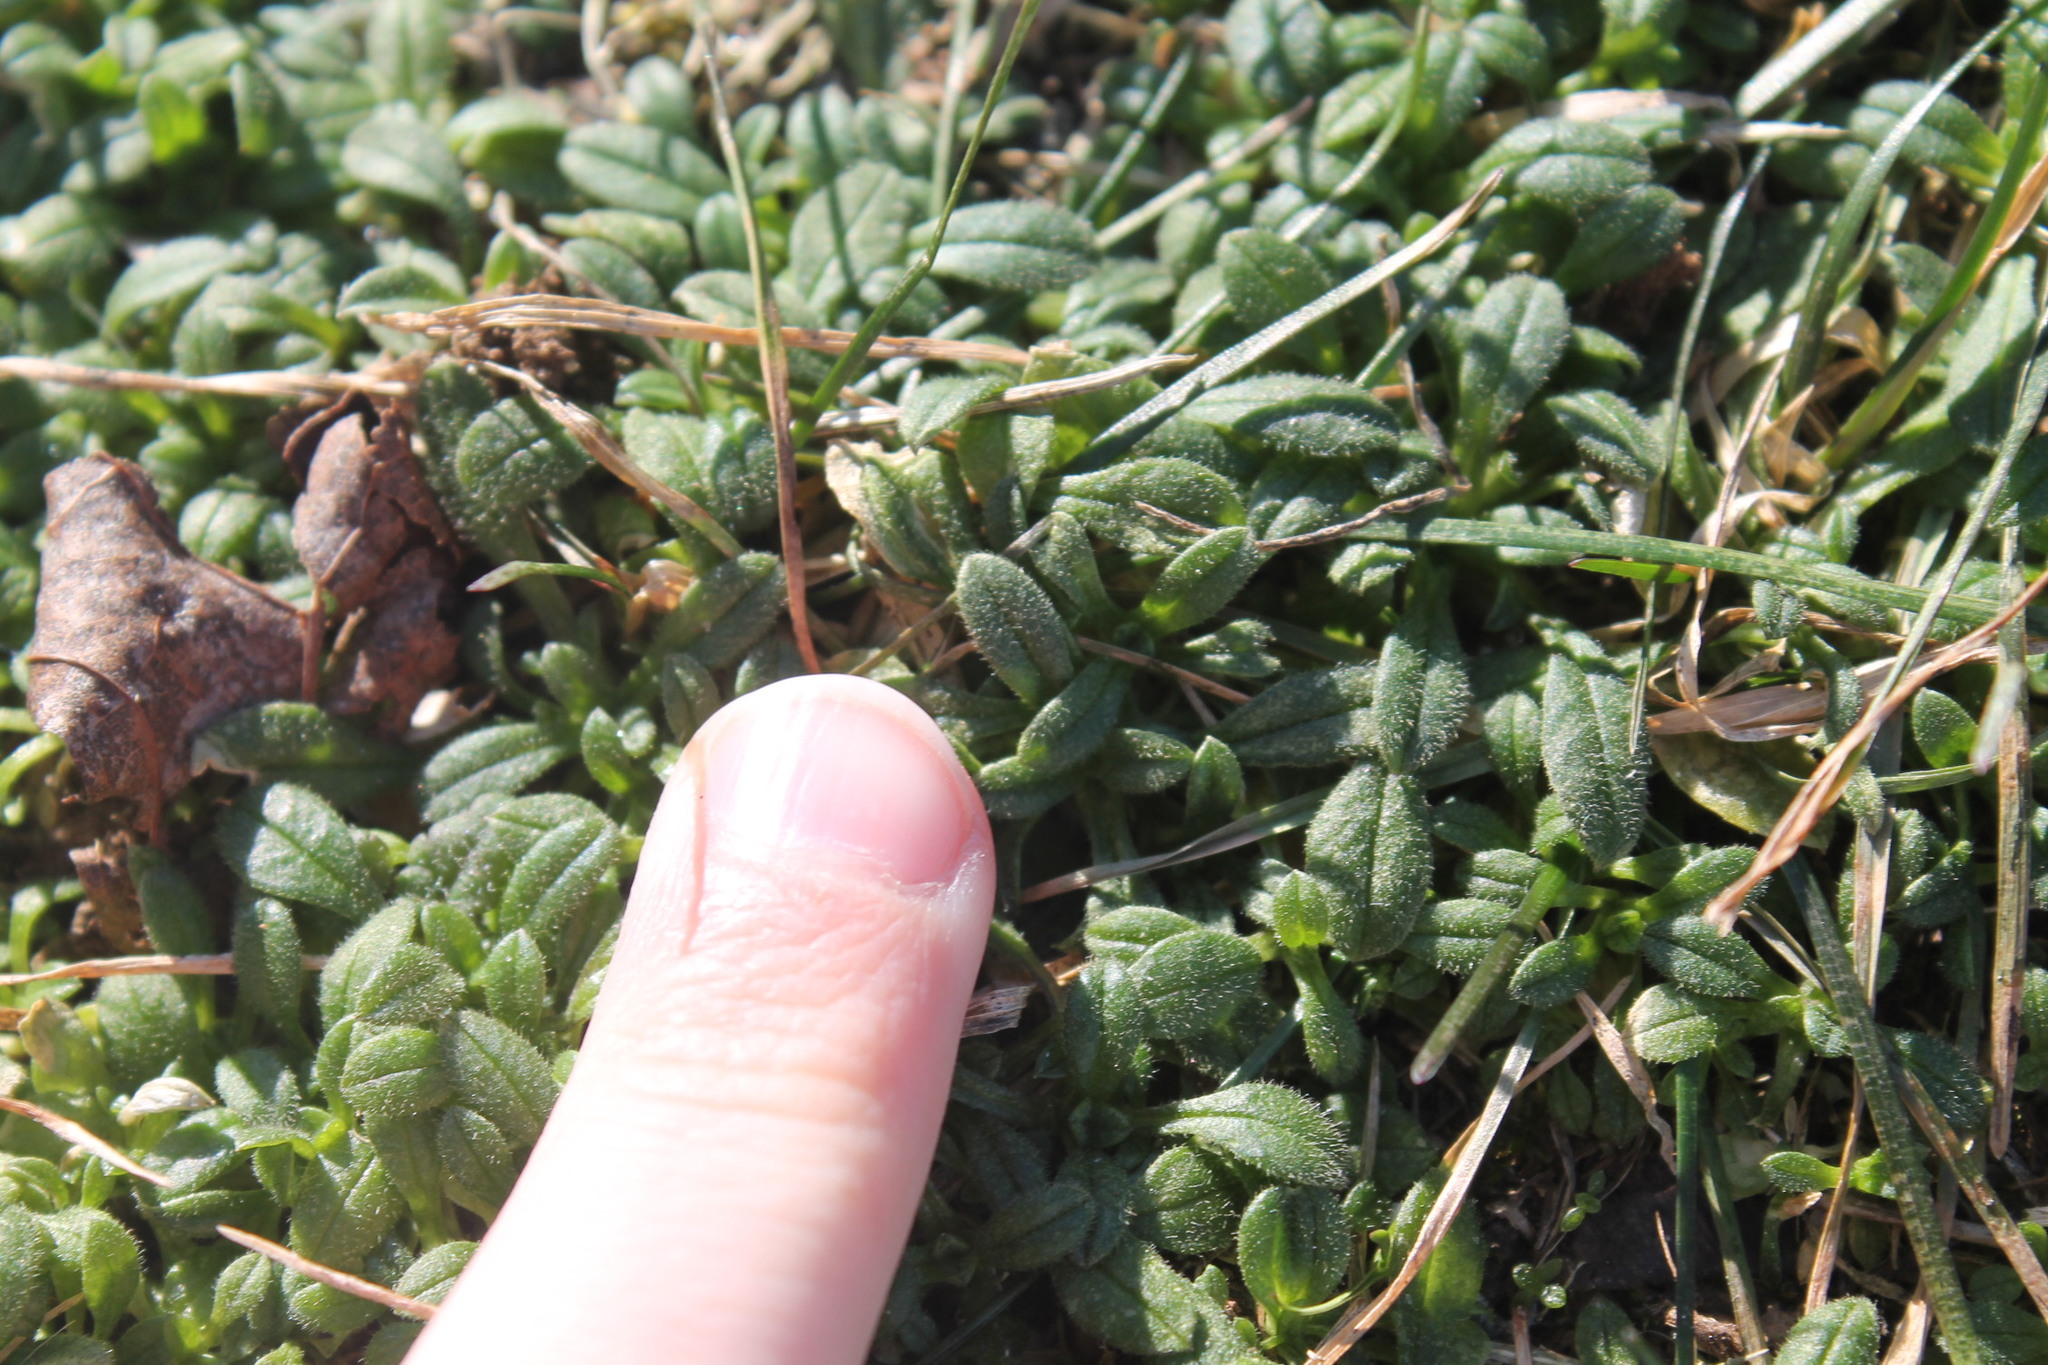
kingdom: Plantae
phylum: Tracheophyta
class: Magnoliopsida
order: Caryophyllales
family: Caryophyllaceae
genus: Cerastium
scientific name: Cerastium fontanum
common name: Common mouse-ear
